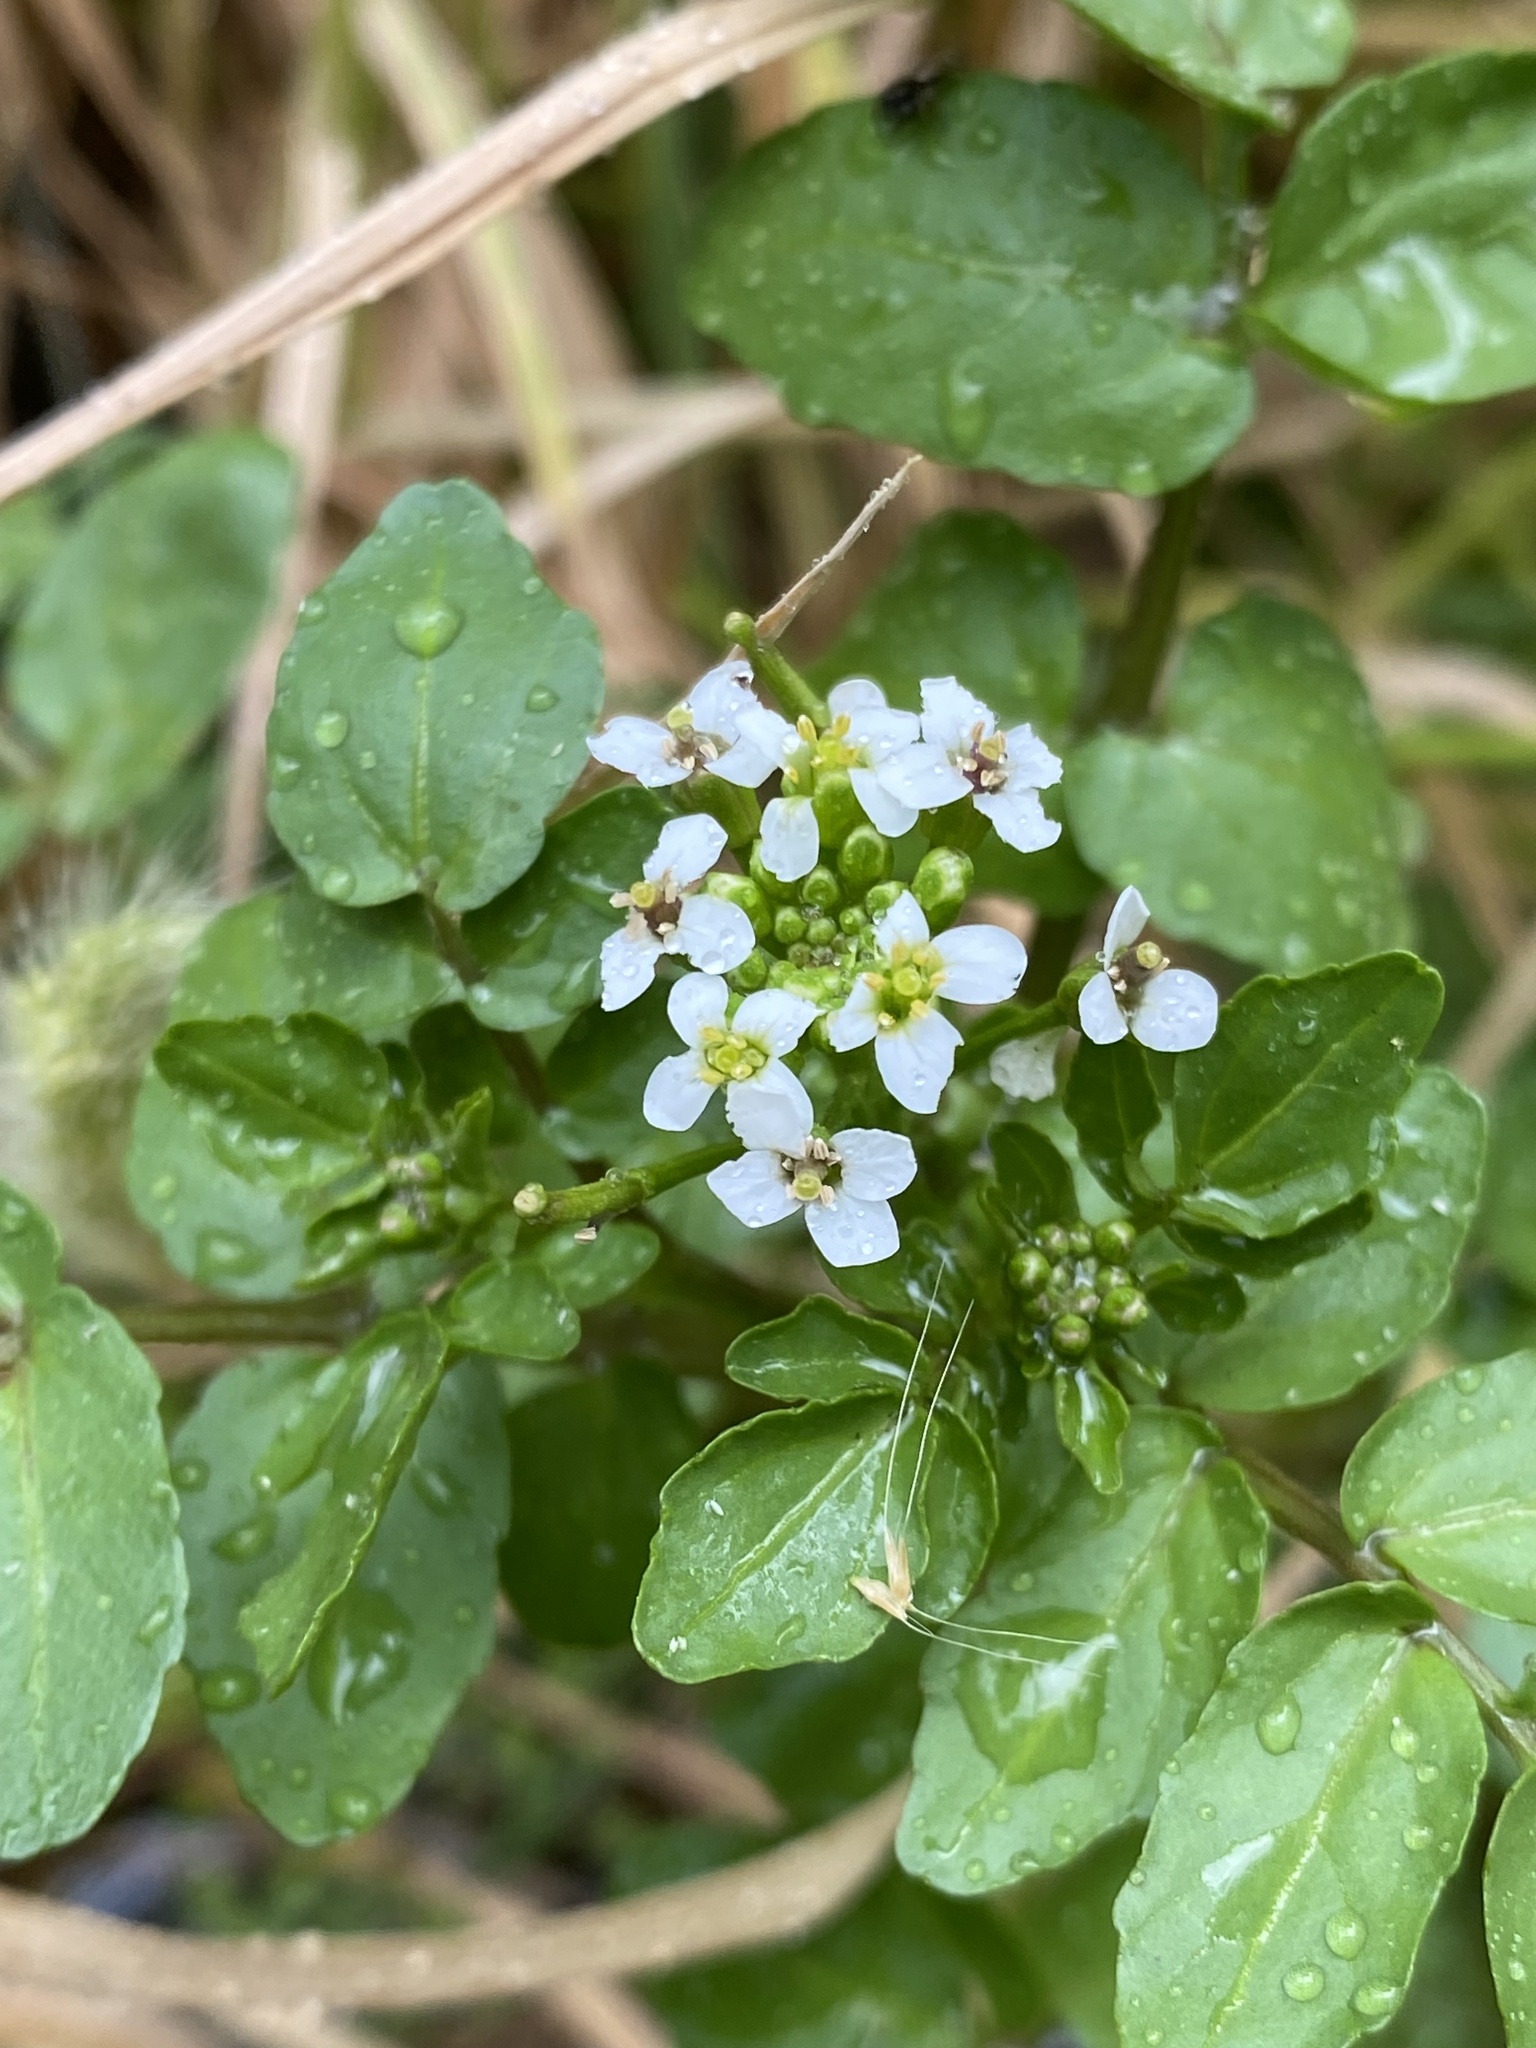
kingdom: Plantae
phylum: Tracheophyta
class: Magnoliopsida
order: Brassicales
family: Brassicaceae
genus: Nasturtium
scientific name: Nasturtium officinale
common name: Watercress
